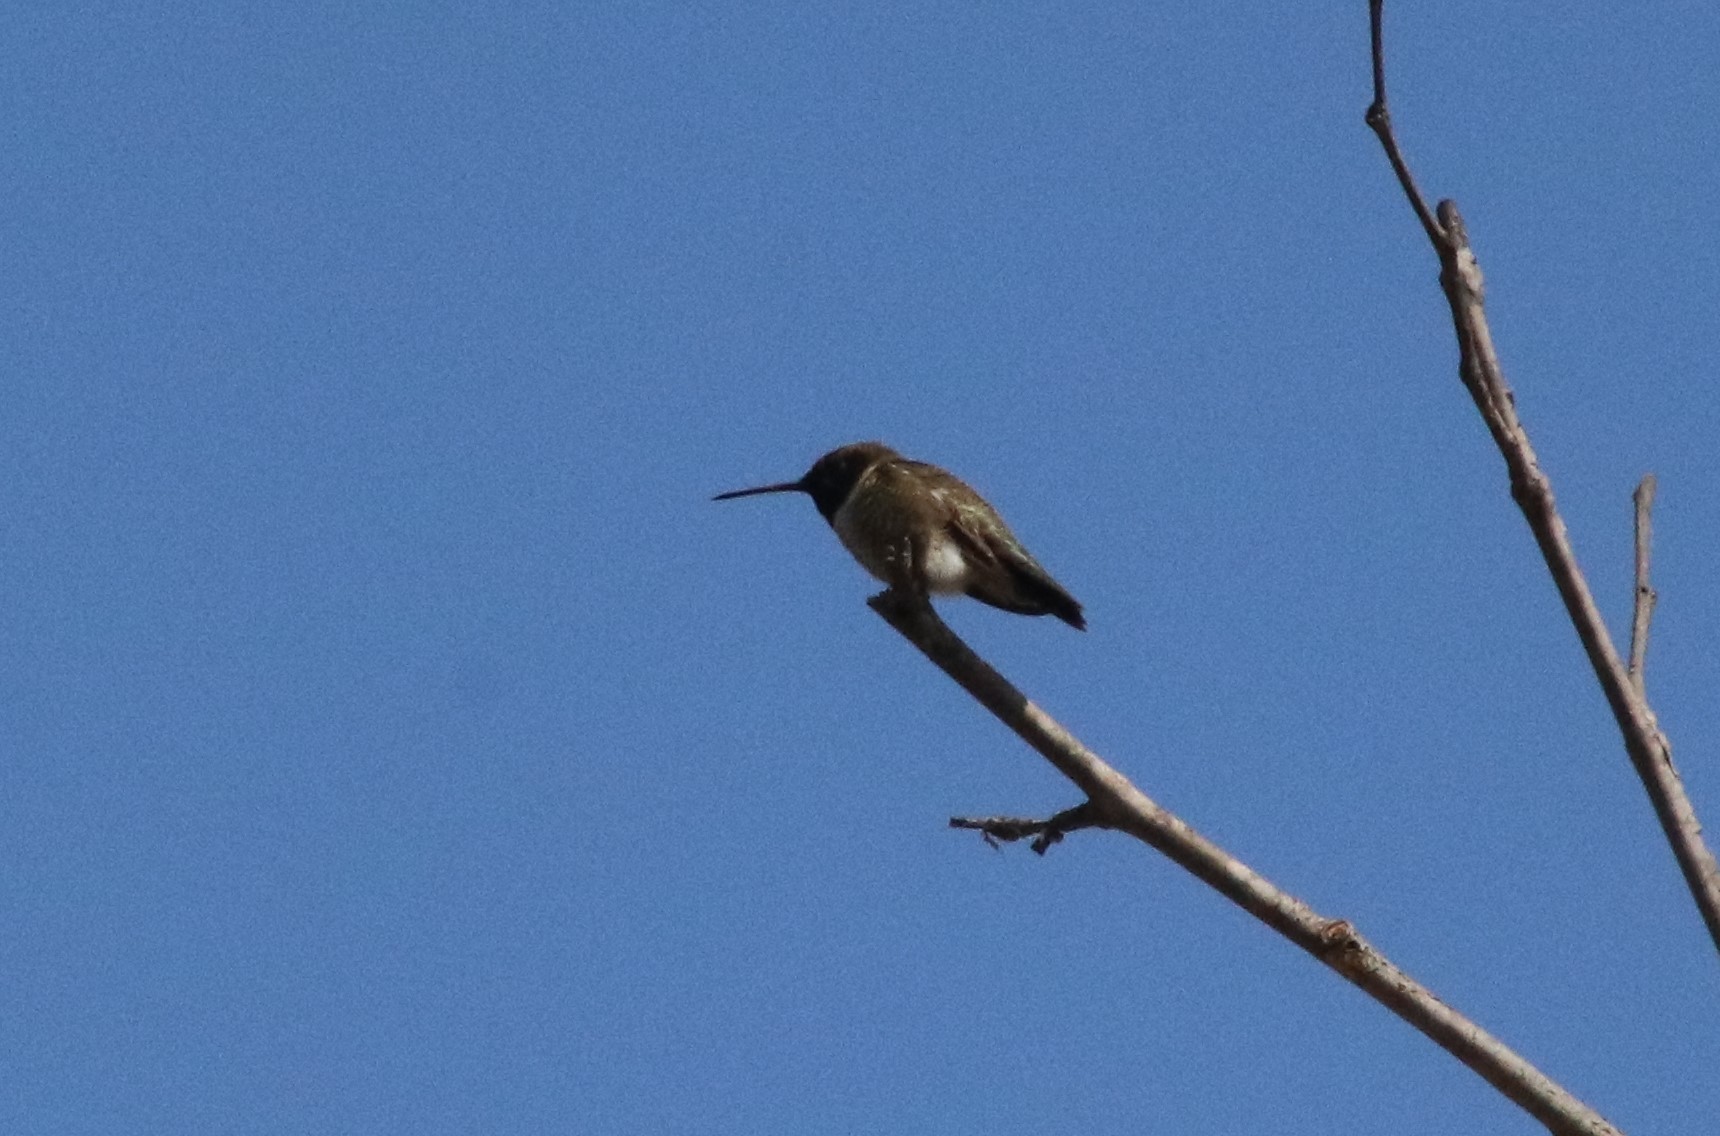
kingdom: Animalia
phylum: Chordata
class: Aves
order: Apodiformes
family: Trochilidae
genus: Archilochus
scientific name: Archilochus alexandri
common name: Black-chinned hummingbird
